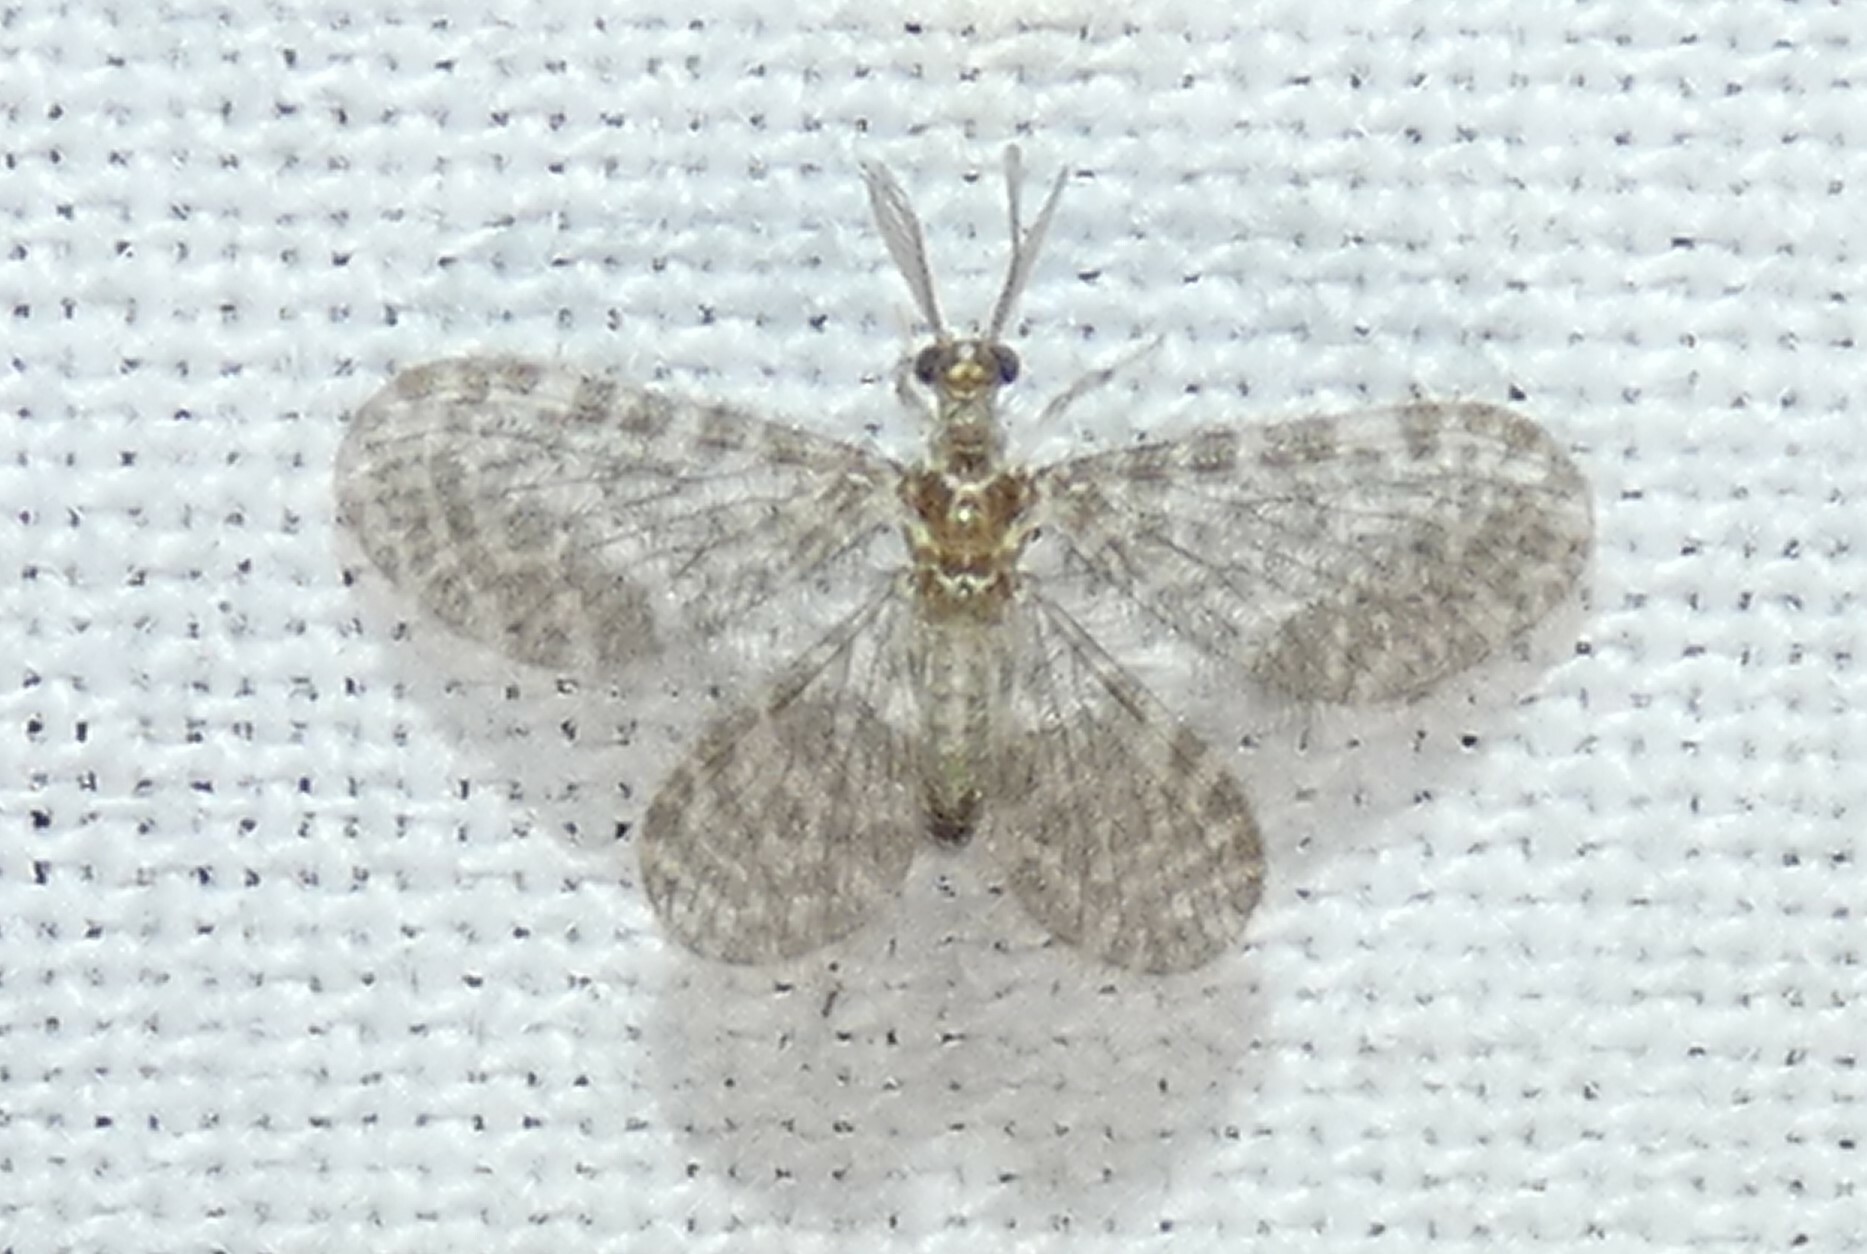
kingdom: Animalia
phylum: Arthropoda
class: Insecta
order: Neuroptera
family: Dilaridae
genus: Nallachius
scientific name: Nallachius americanus
